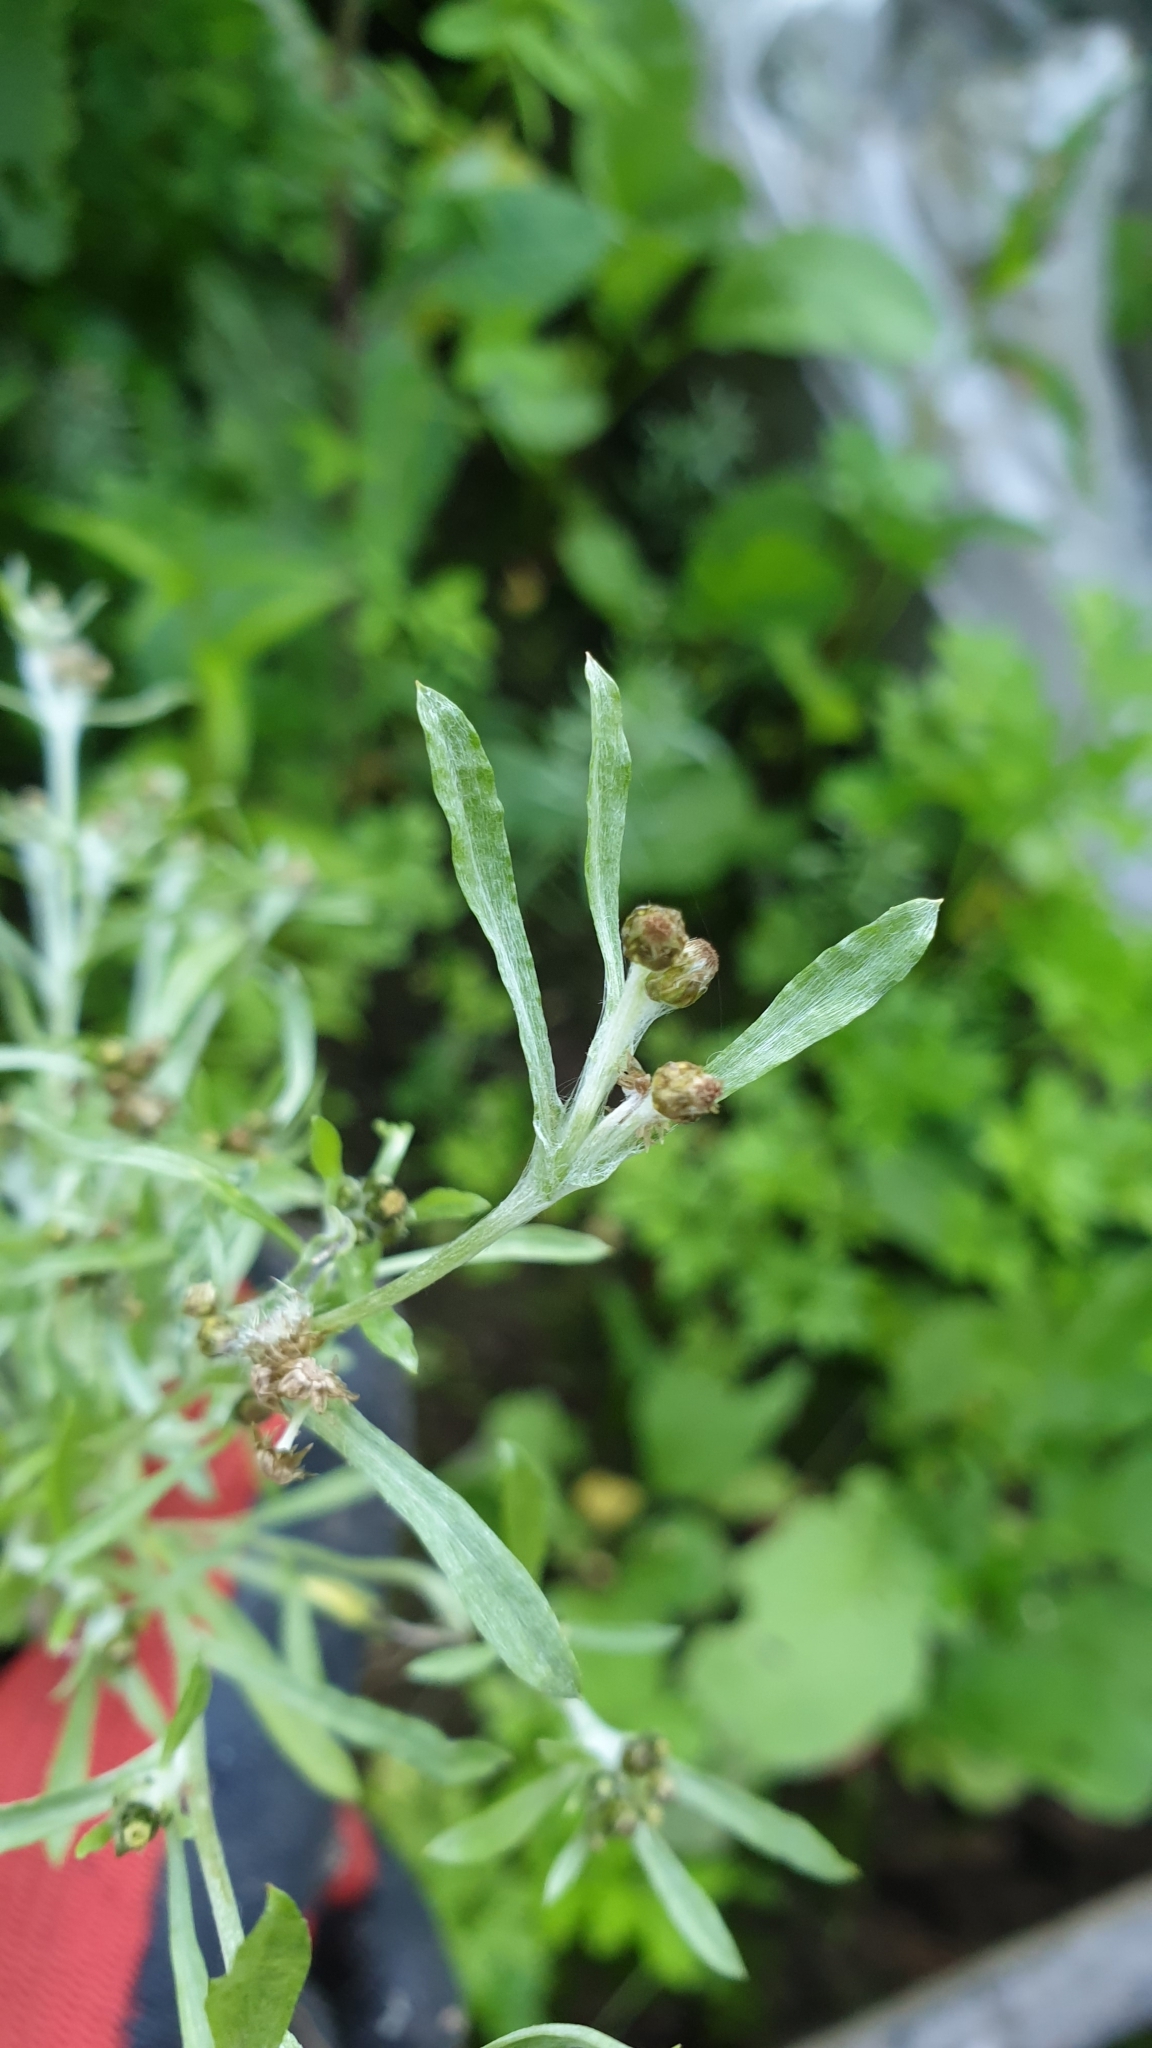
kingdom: Plantae
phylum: Tracheophyta
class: Magnoliopsida
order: Asterales
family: Asteraceae
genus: Gnaphalium
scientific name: Gnaphalium uliginosum
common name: Marsh cudweed
